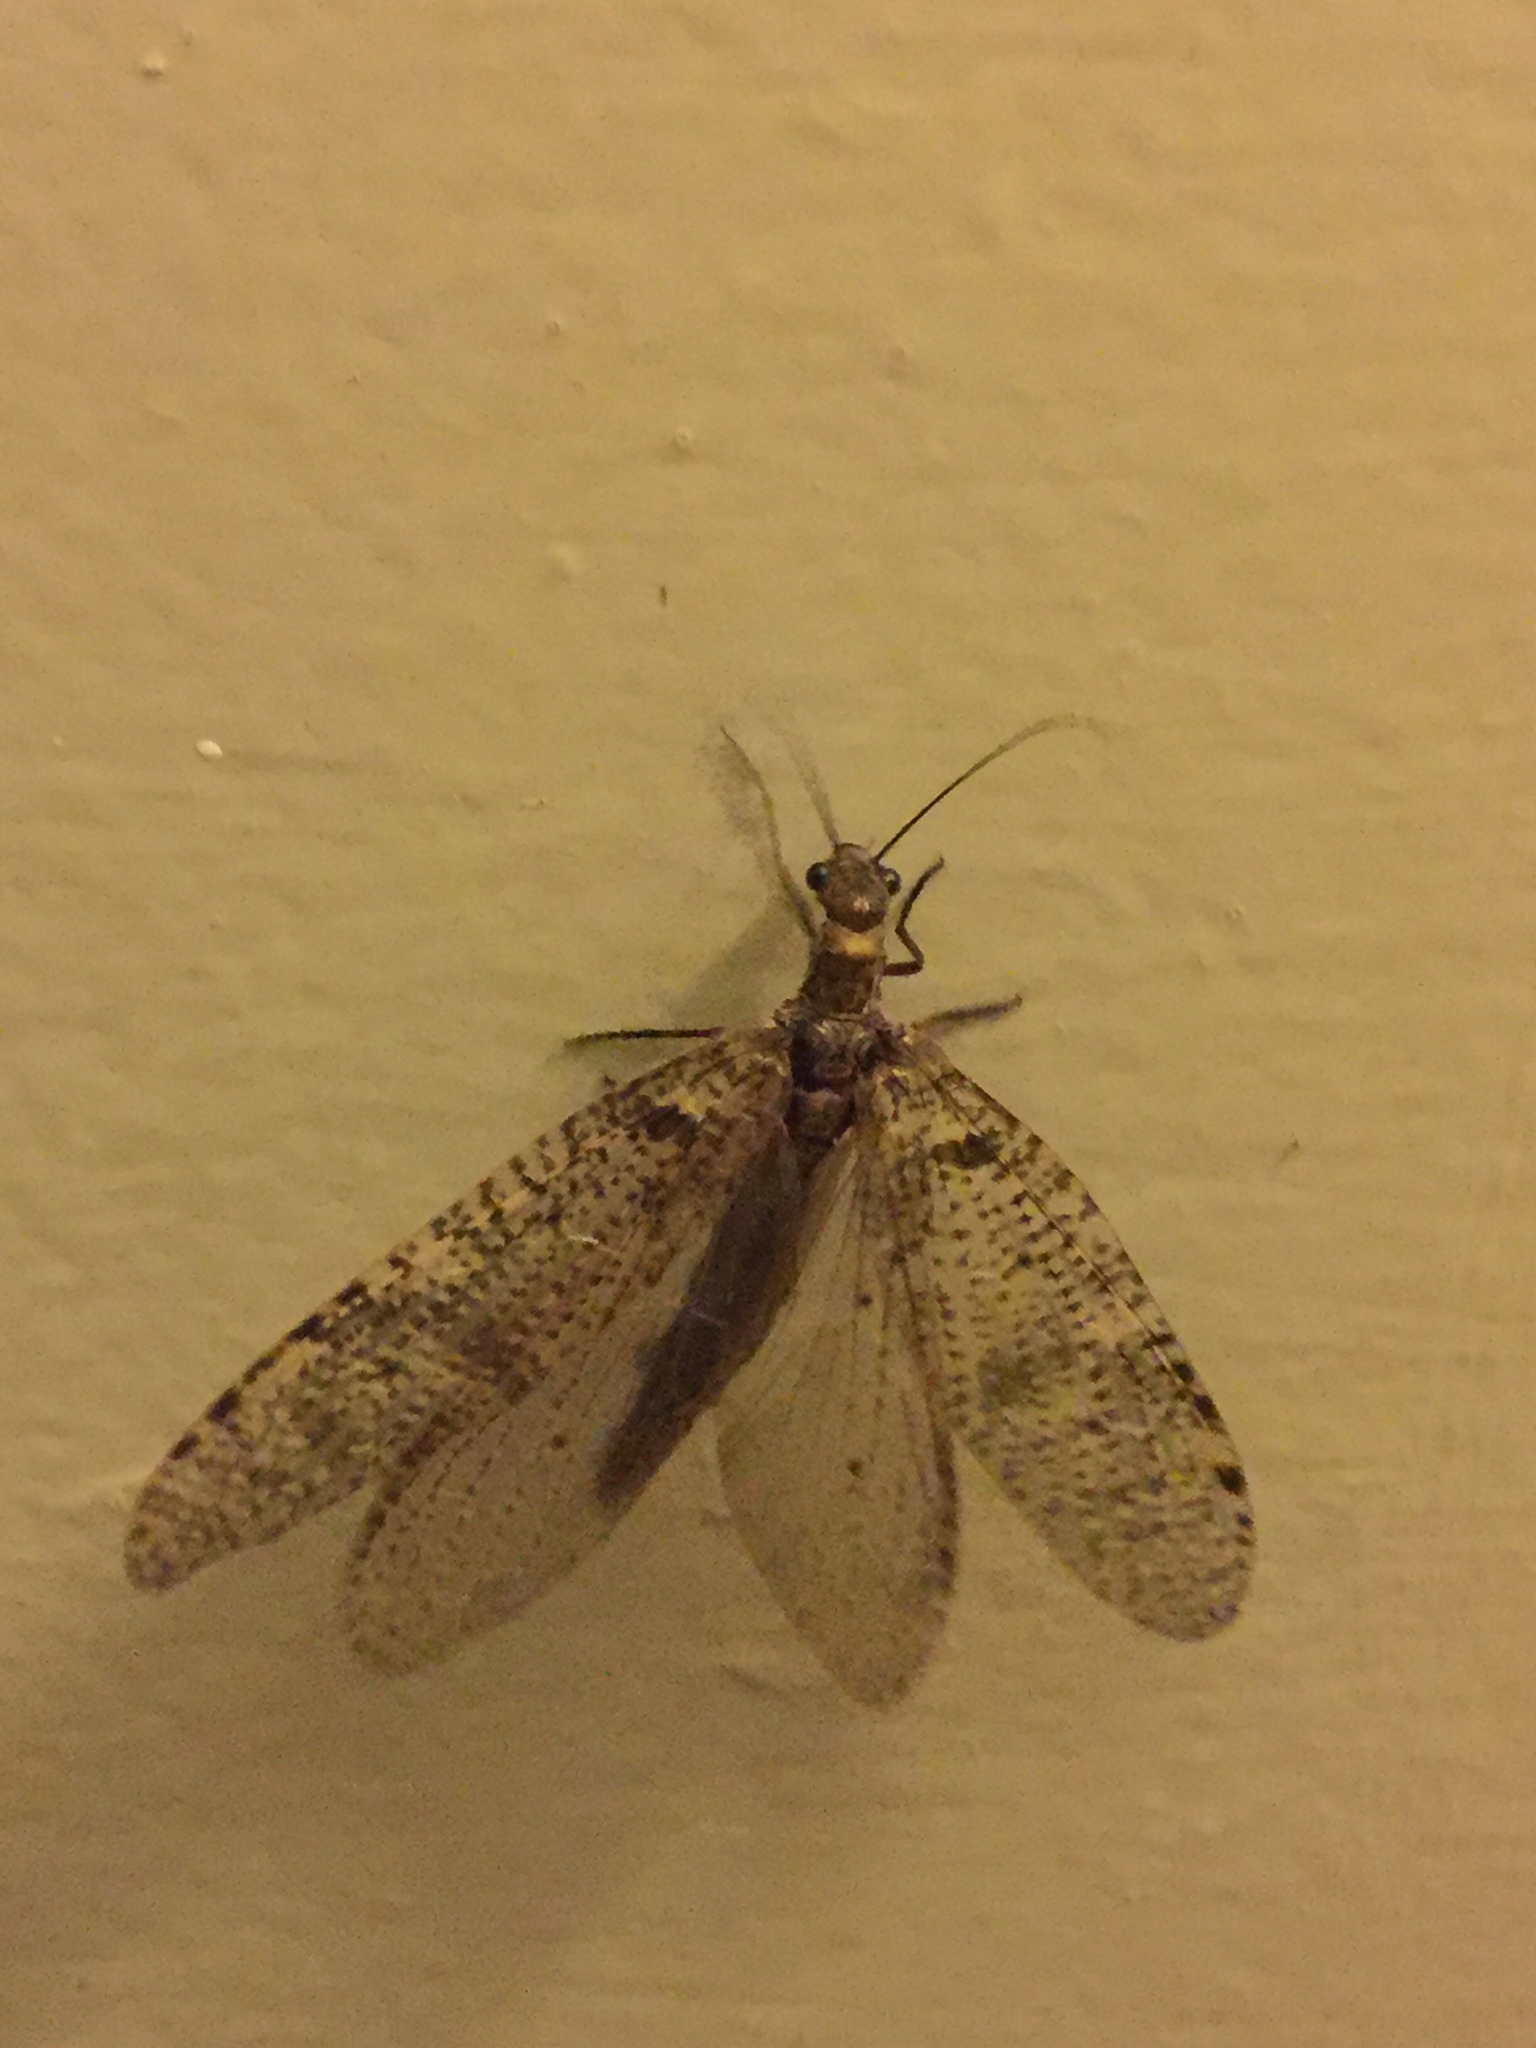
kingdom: Animalia
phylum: Arthropoda
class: Insecta
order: Megaloptera
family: Corydalidae
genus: Archichauliodes
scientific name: Archichauliodes diversus
